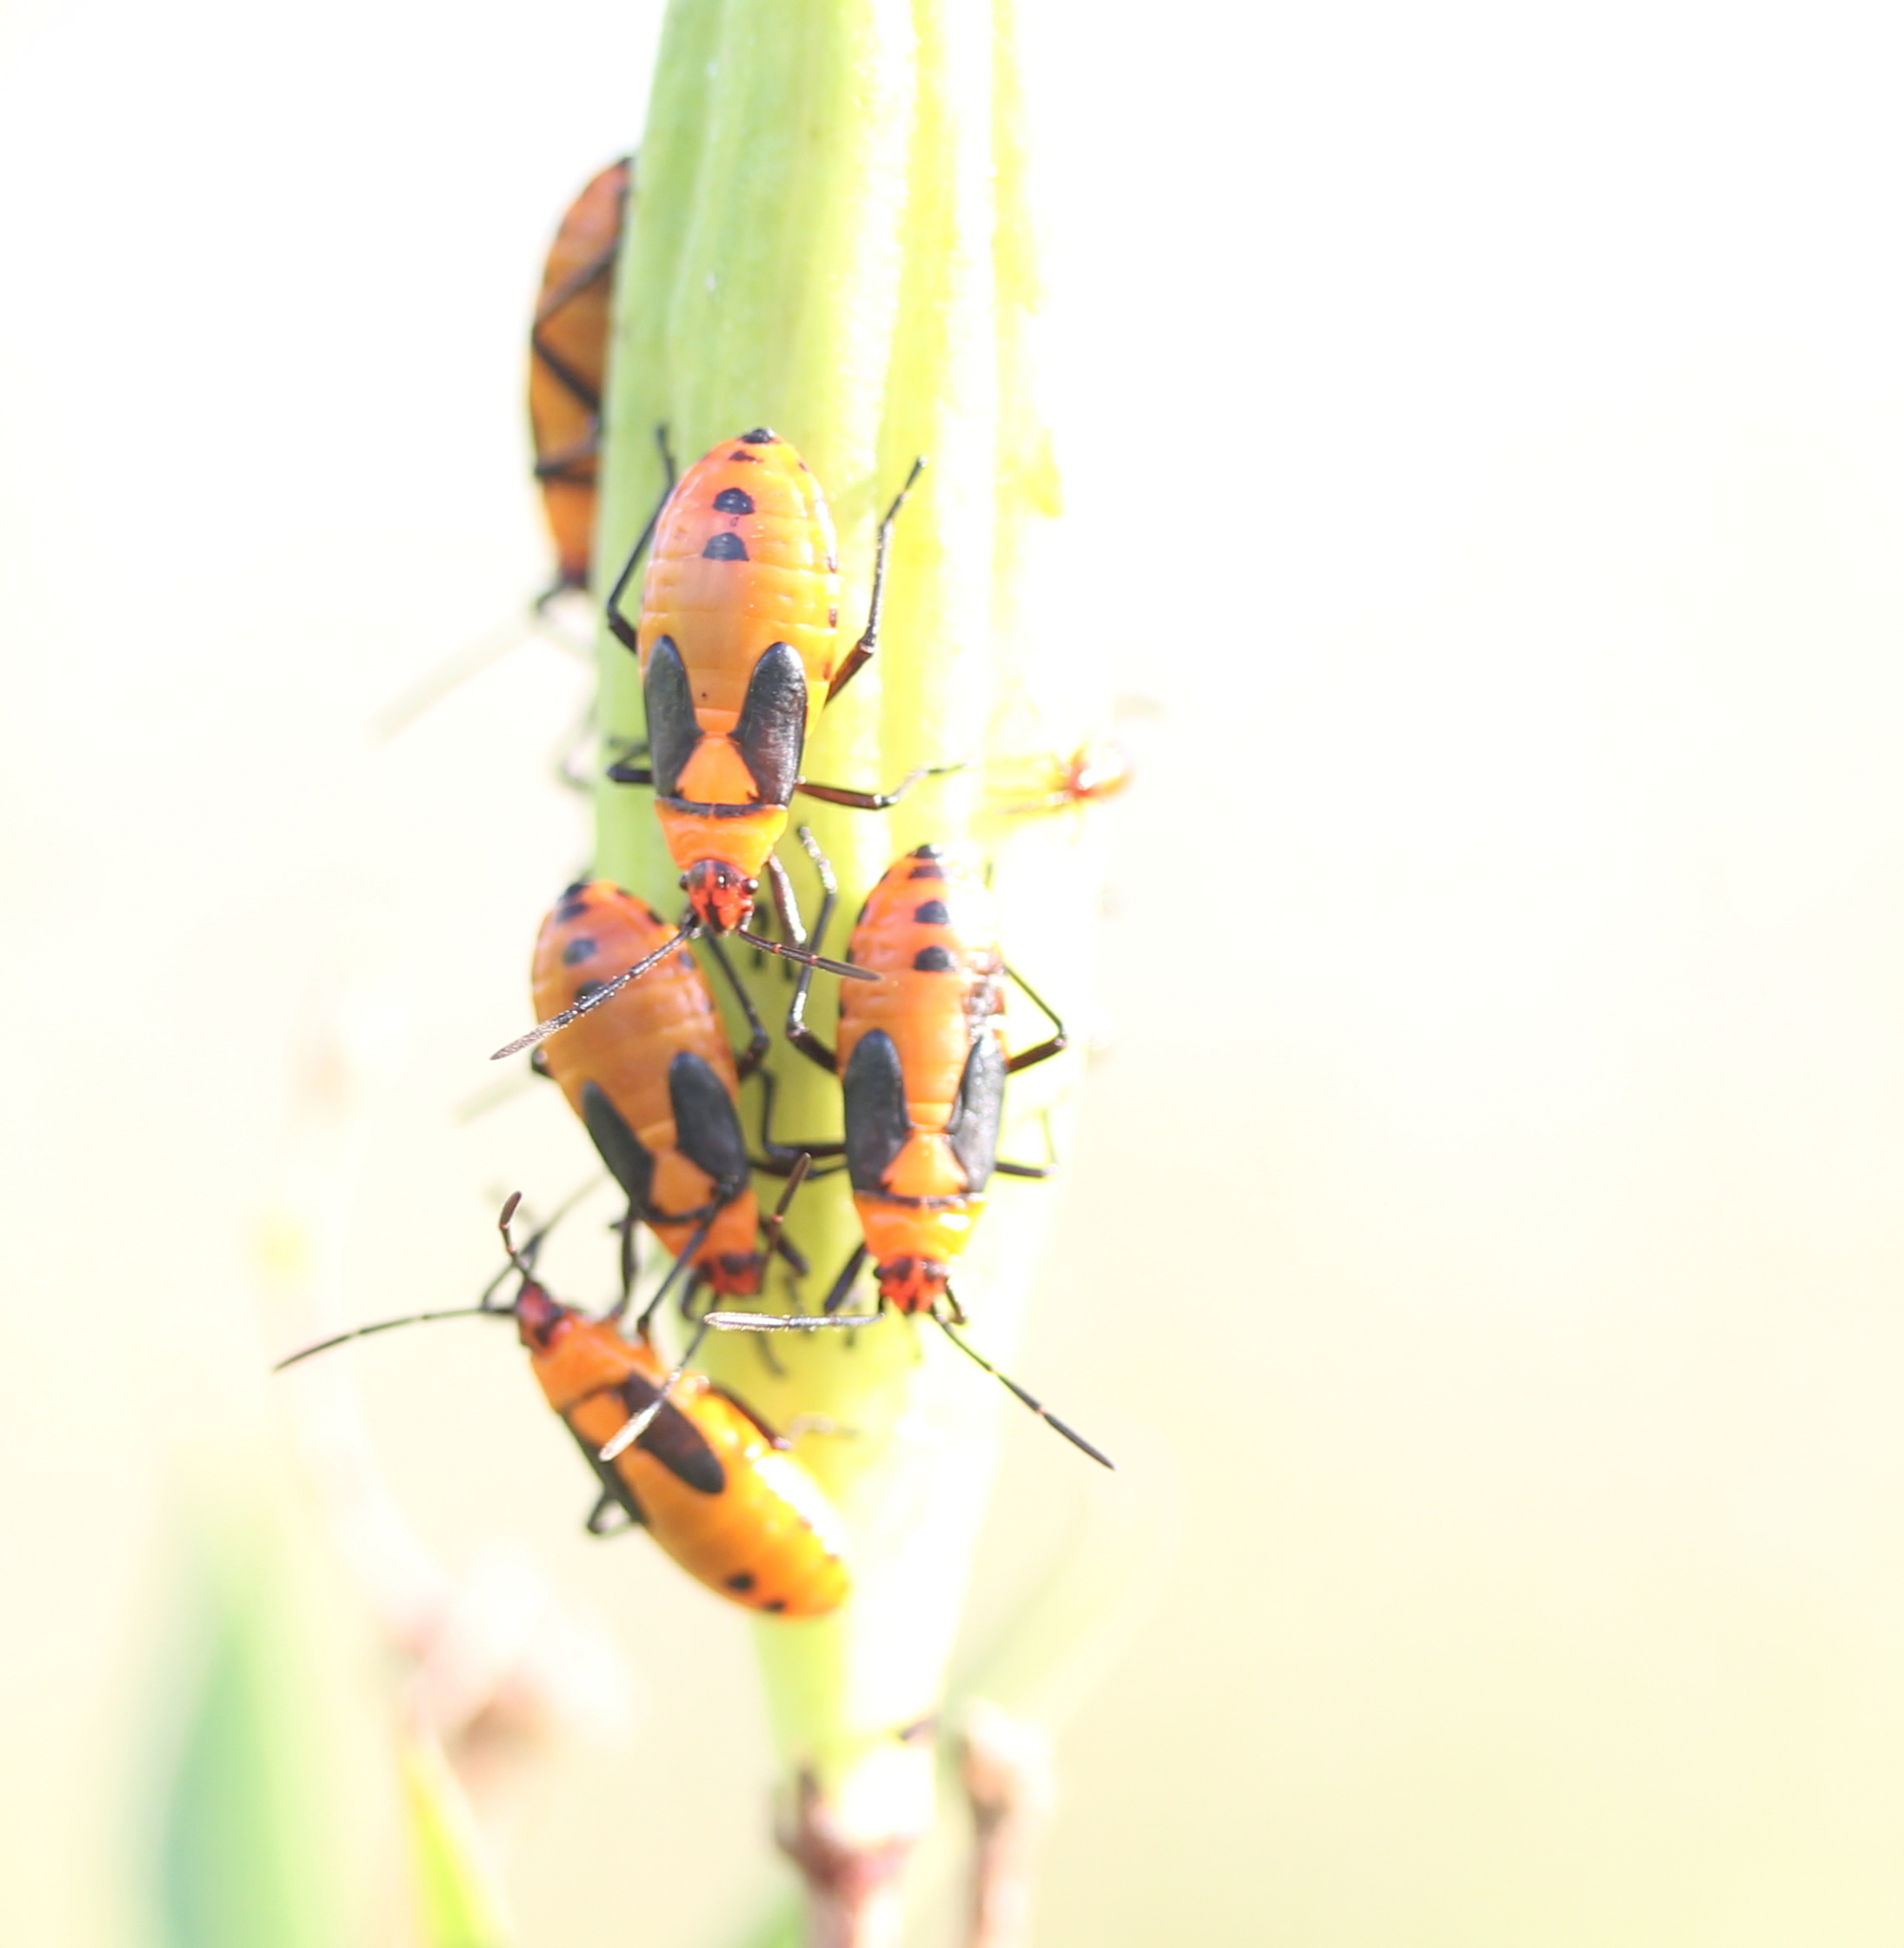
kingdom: Animalia
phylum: Arthropoda
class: Insecta
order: Hemiptera
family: Lygaeidae
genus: Oncopeltus
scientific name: Oncopeltus fasciatus
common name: Large milkweed bug
